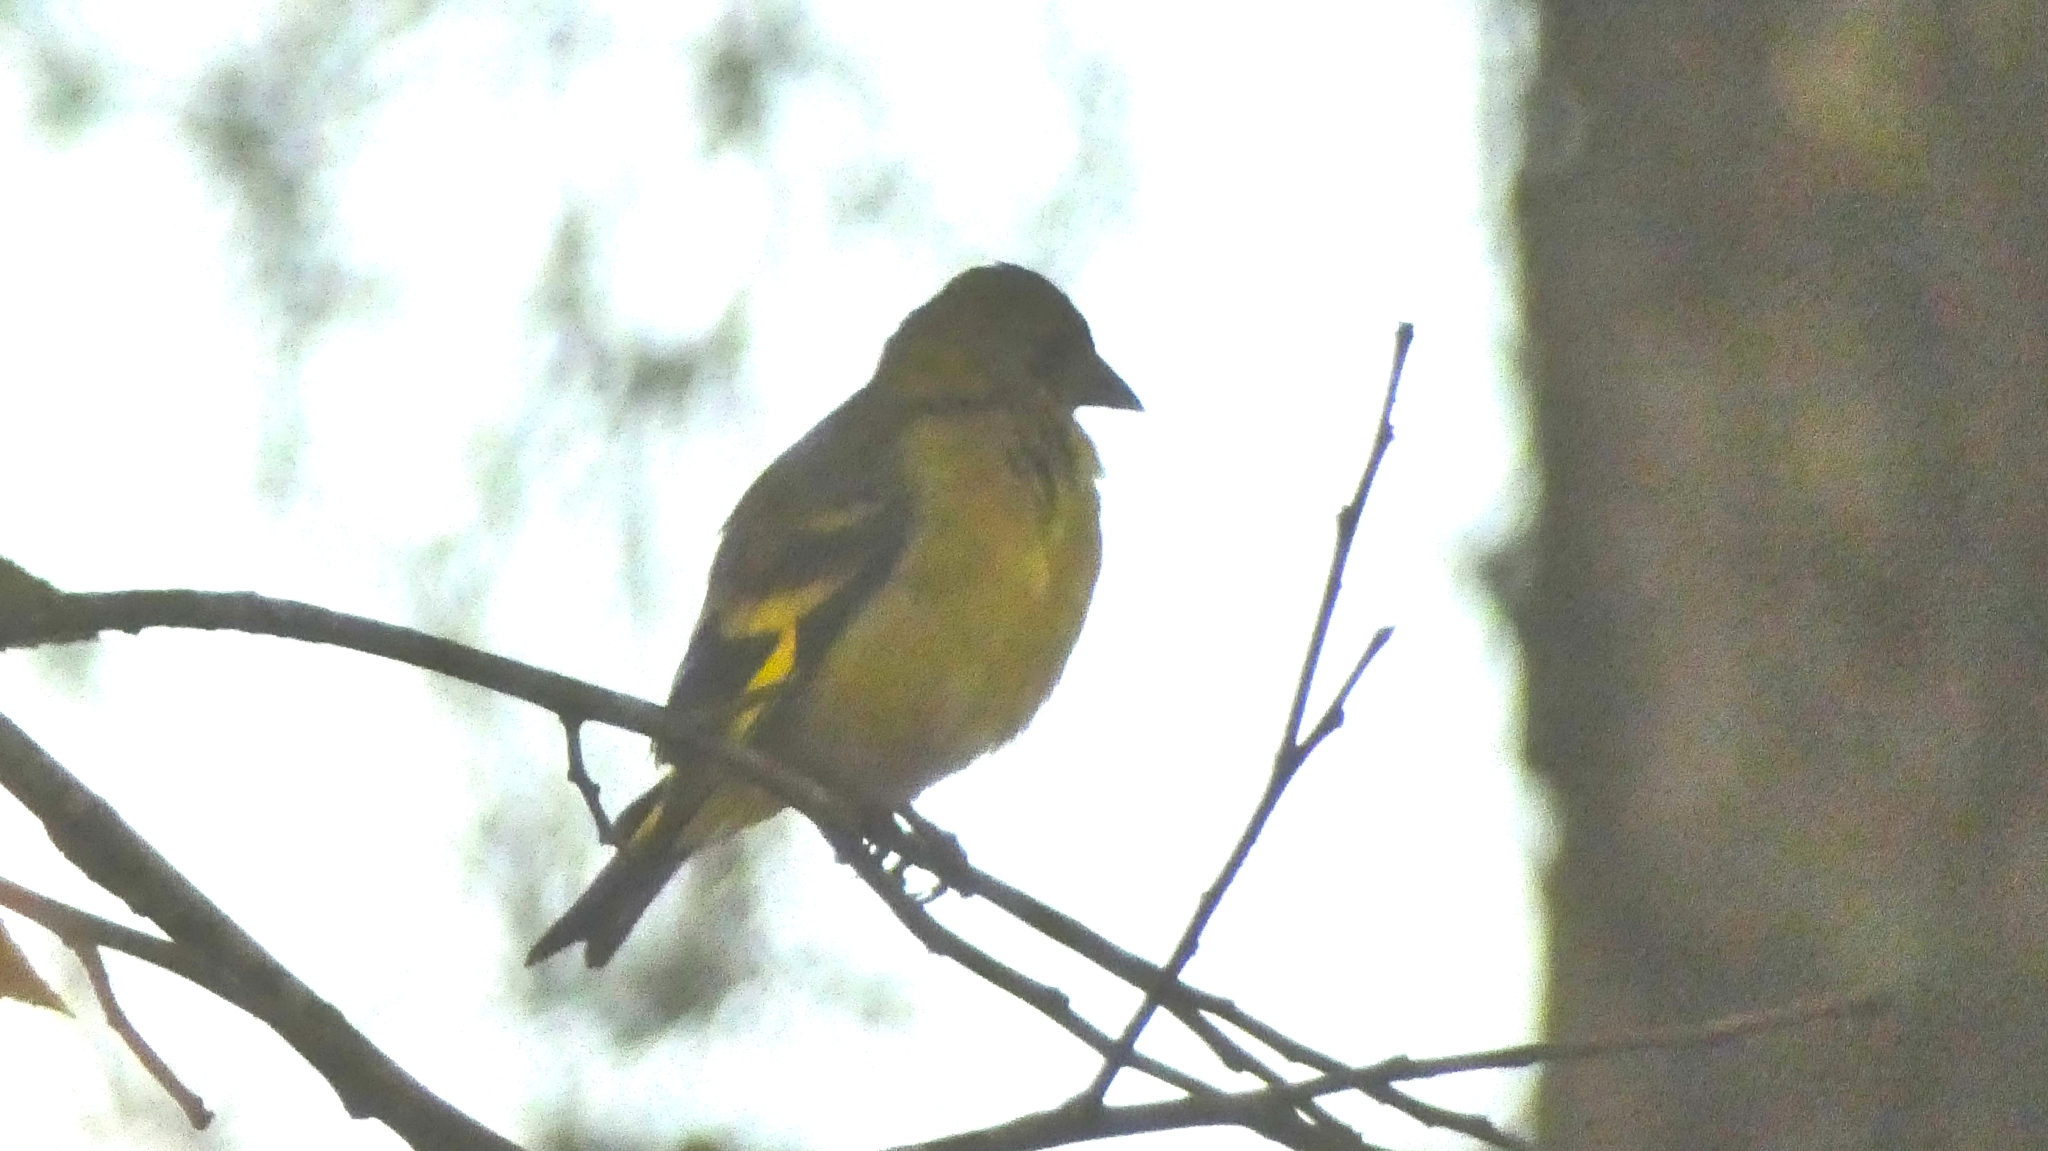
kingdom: Animalia
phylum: Chordata
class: Aves
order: Passeriformes
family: Fringillidae
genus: Spinus
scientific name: Spinus magellanicus
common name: Hooded siskin
